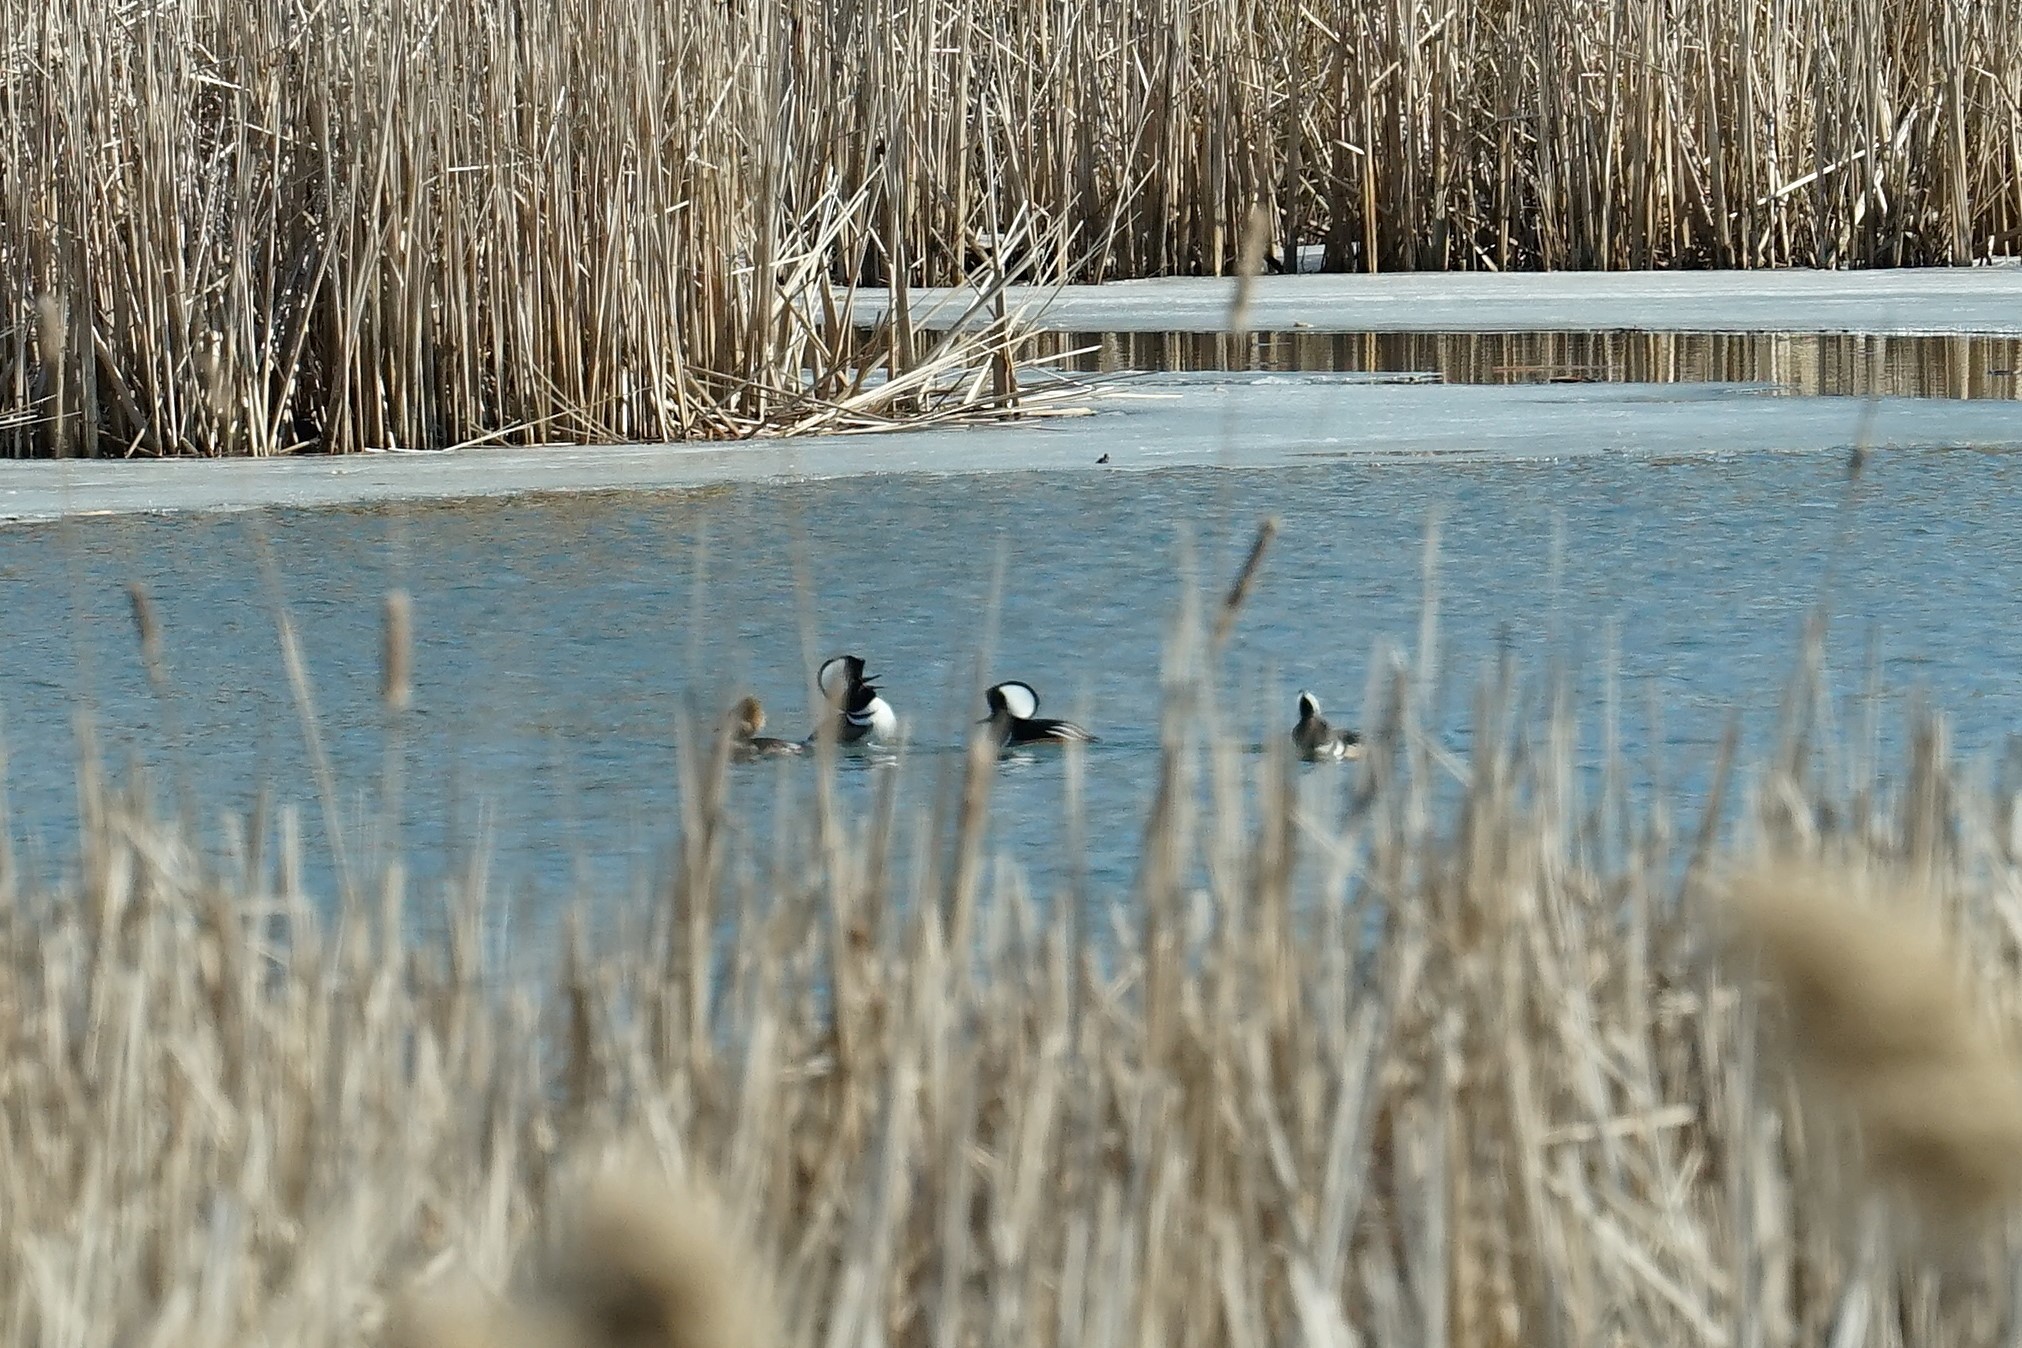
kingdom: Animalia
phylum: Chordata
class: Aves
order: Anseriformes
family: Anatidae
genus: Lophodytes
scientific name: Lophodytes cucullatus
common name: Hooded merganser
